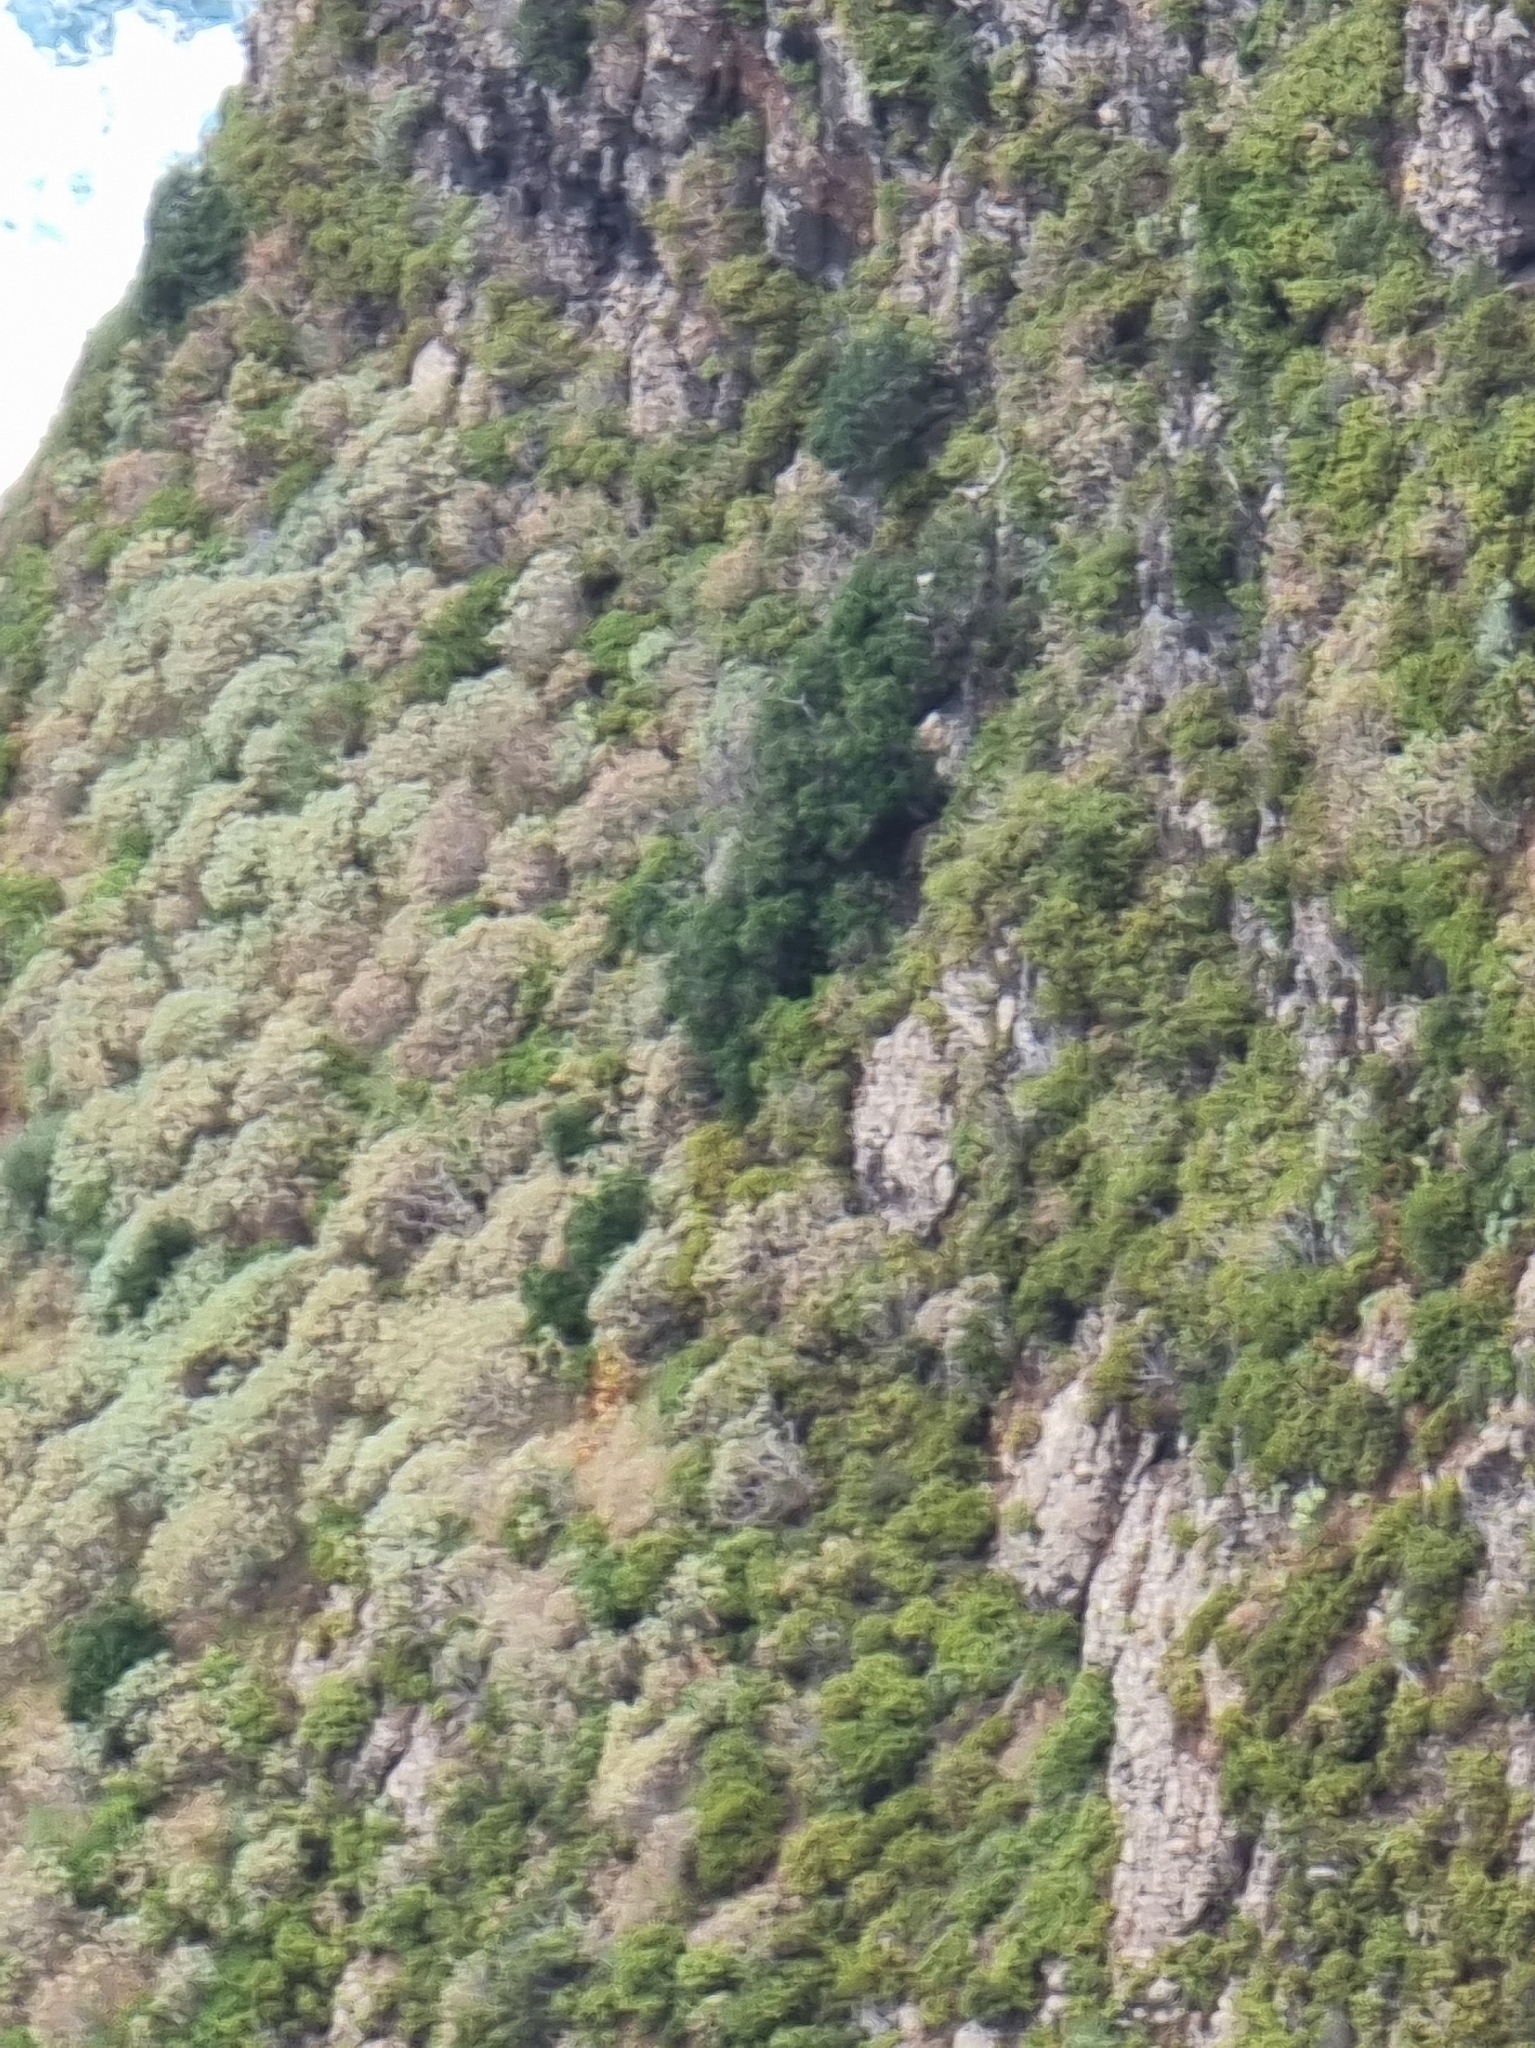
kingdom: Plantae
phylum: Tracheophyta
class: Magnoliopsida
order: Malpighiales
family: Euphorbiaceae
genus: Euphorbia
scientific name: Euphorbia piscatoria
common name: Fish-stunning spurge
